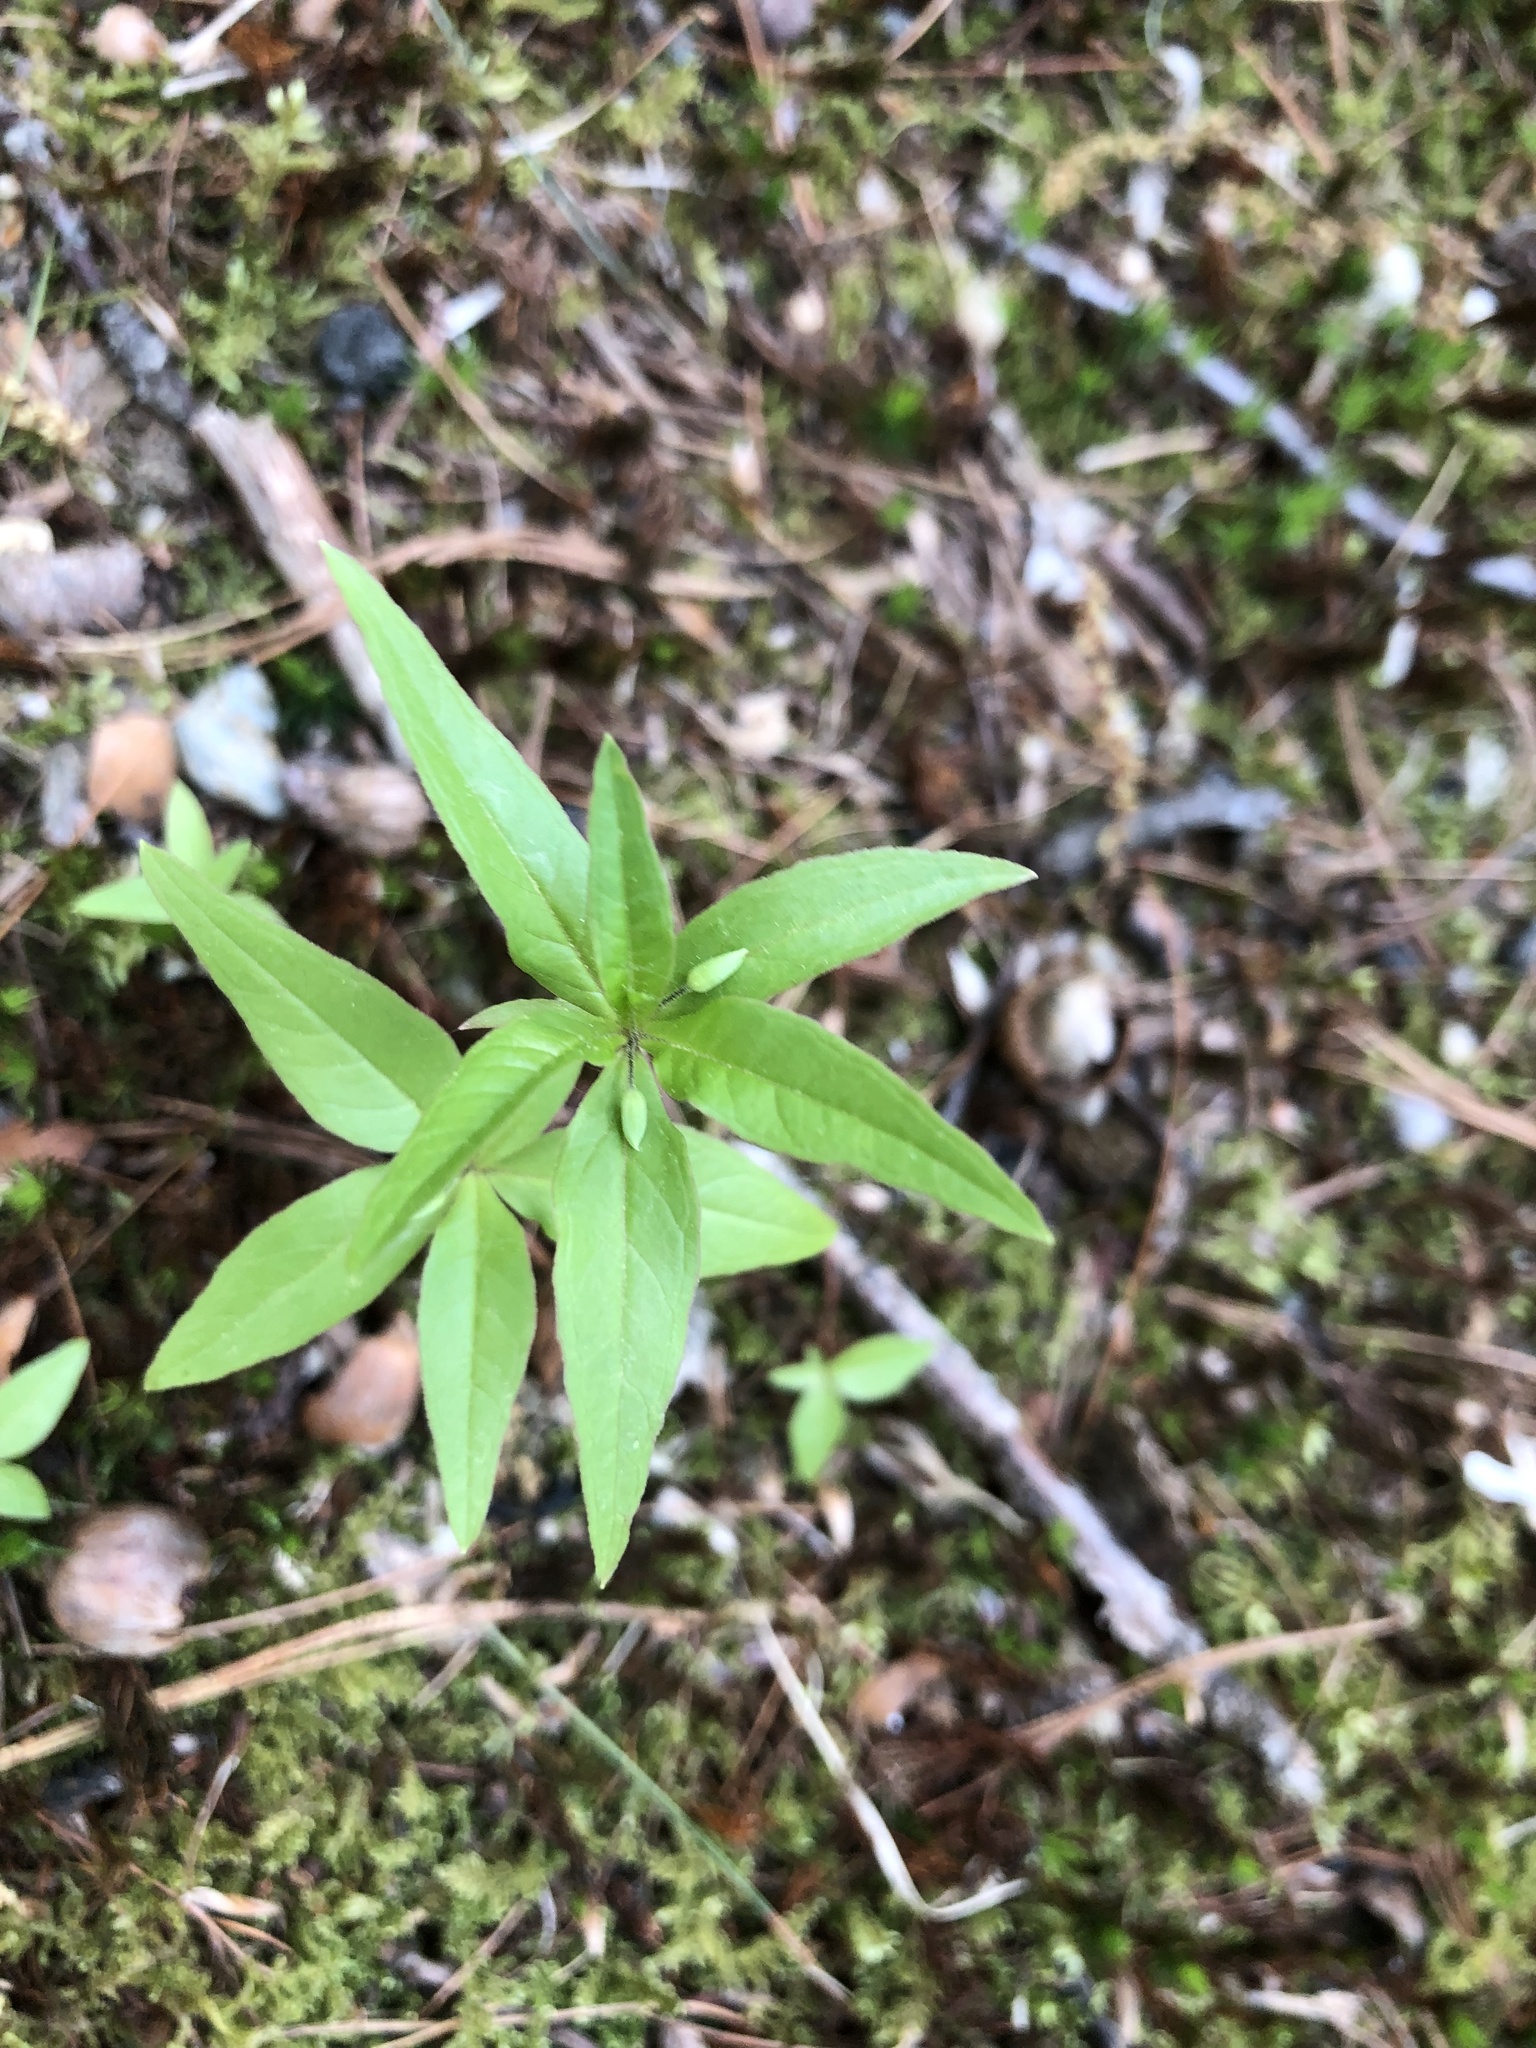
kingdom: Plantae
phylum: Tracheophyta
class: Magnoliopsida
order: Ericales
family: Primulaceae
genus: Lysimachia
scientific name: Lysimachia borealis
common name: American starflower
